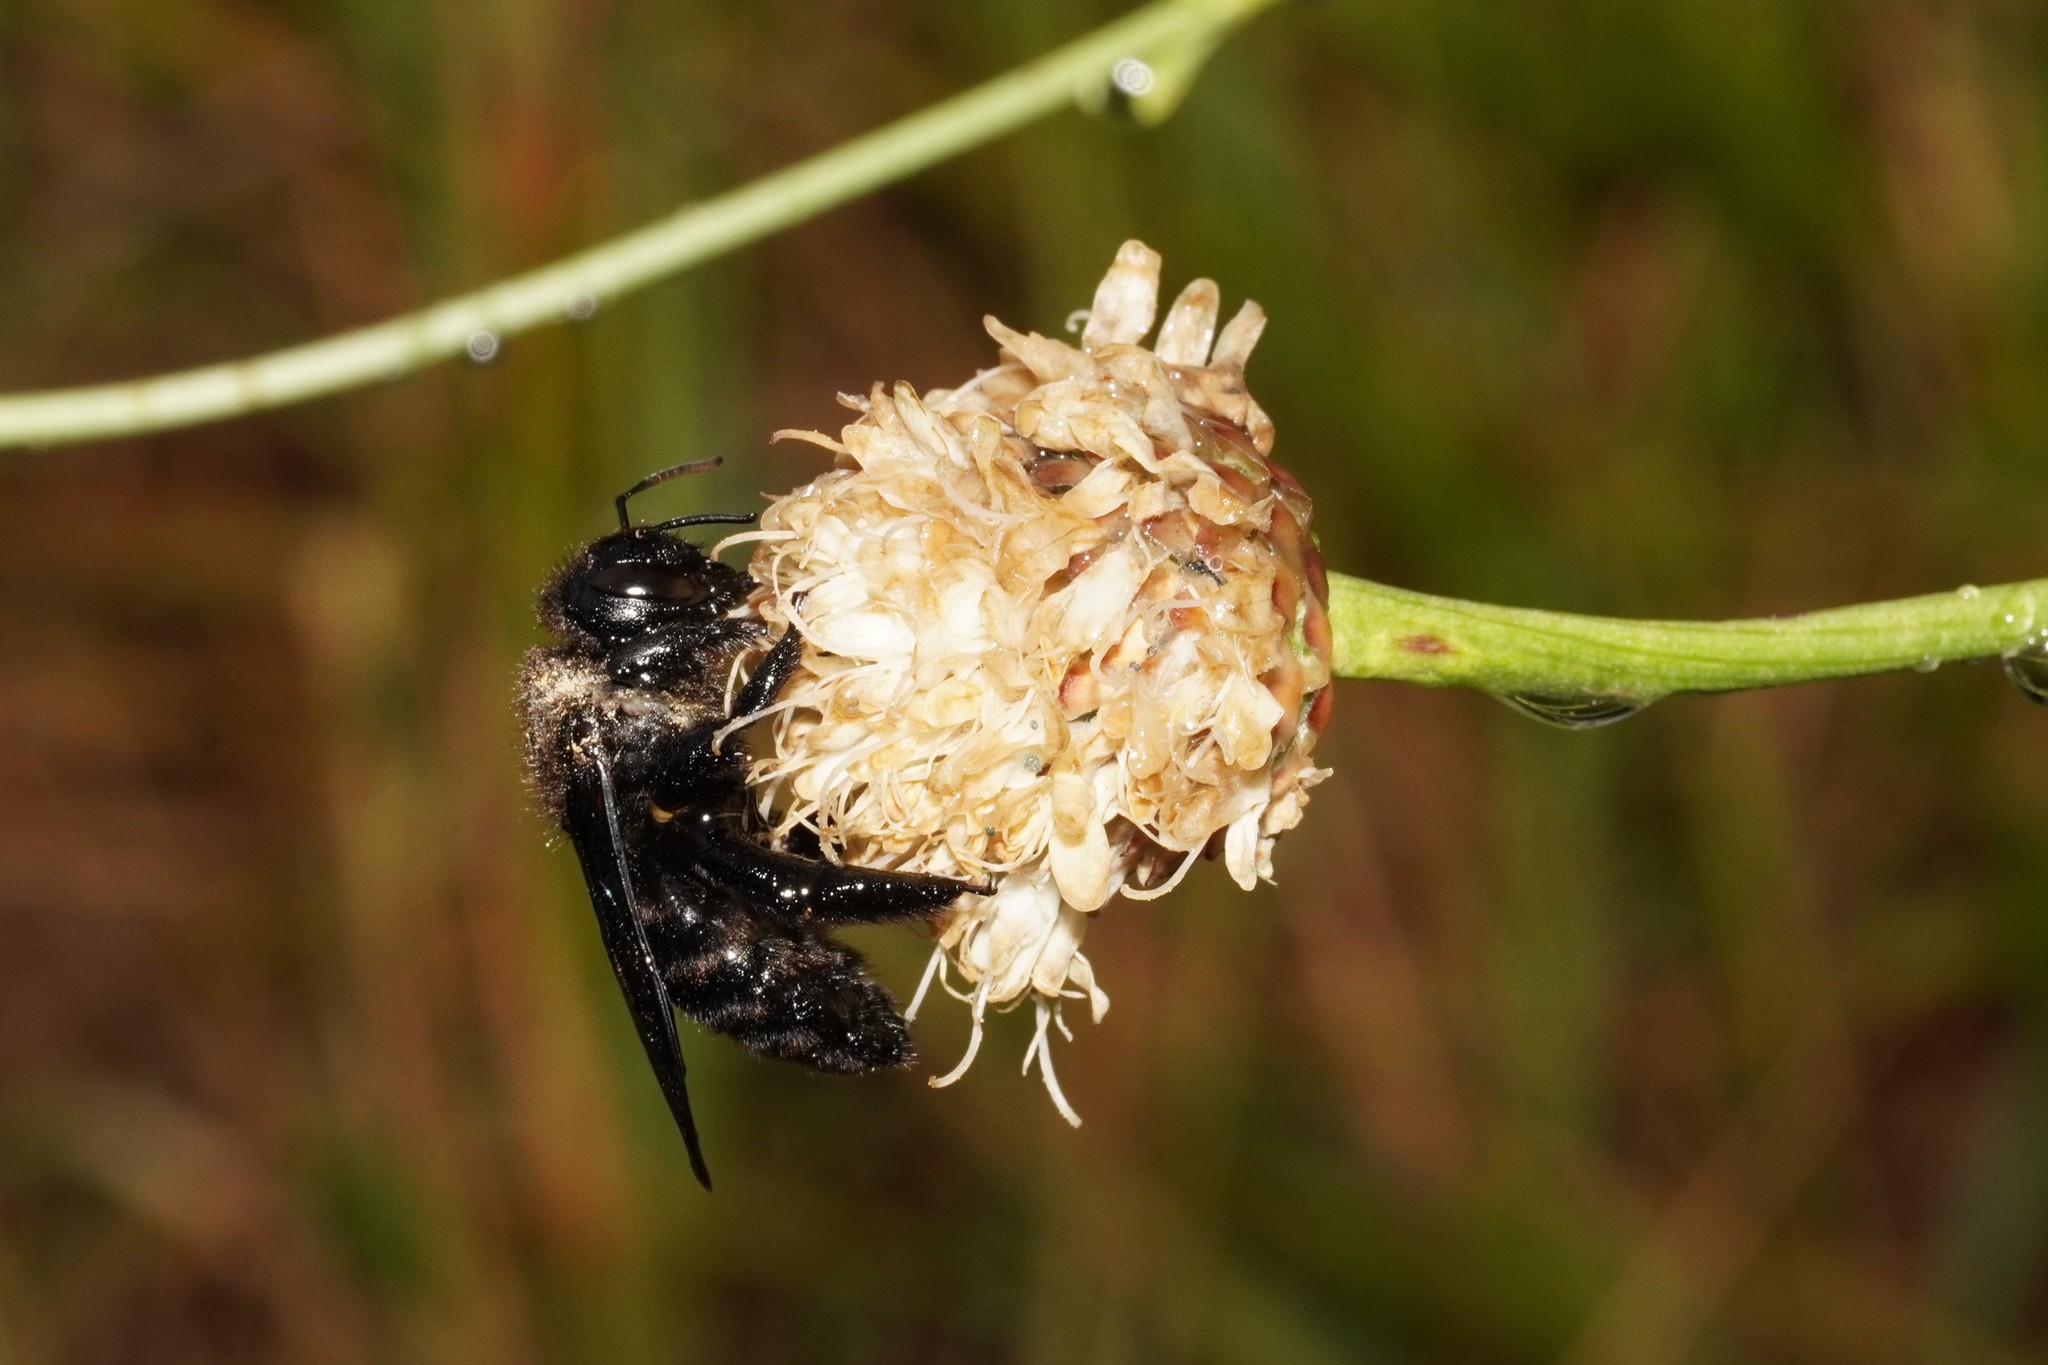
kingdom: Animalia
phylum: Arthropoda
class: Insecta
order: Hymenoptera
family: Apidae
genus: Xylocopa
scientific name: Xylocopa violacea
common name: Violet carpenter bee
